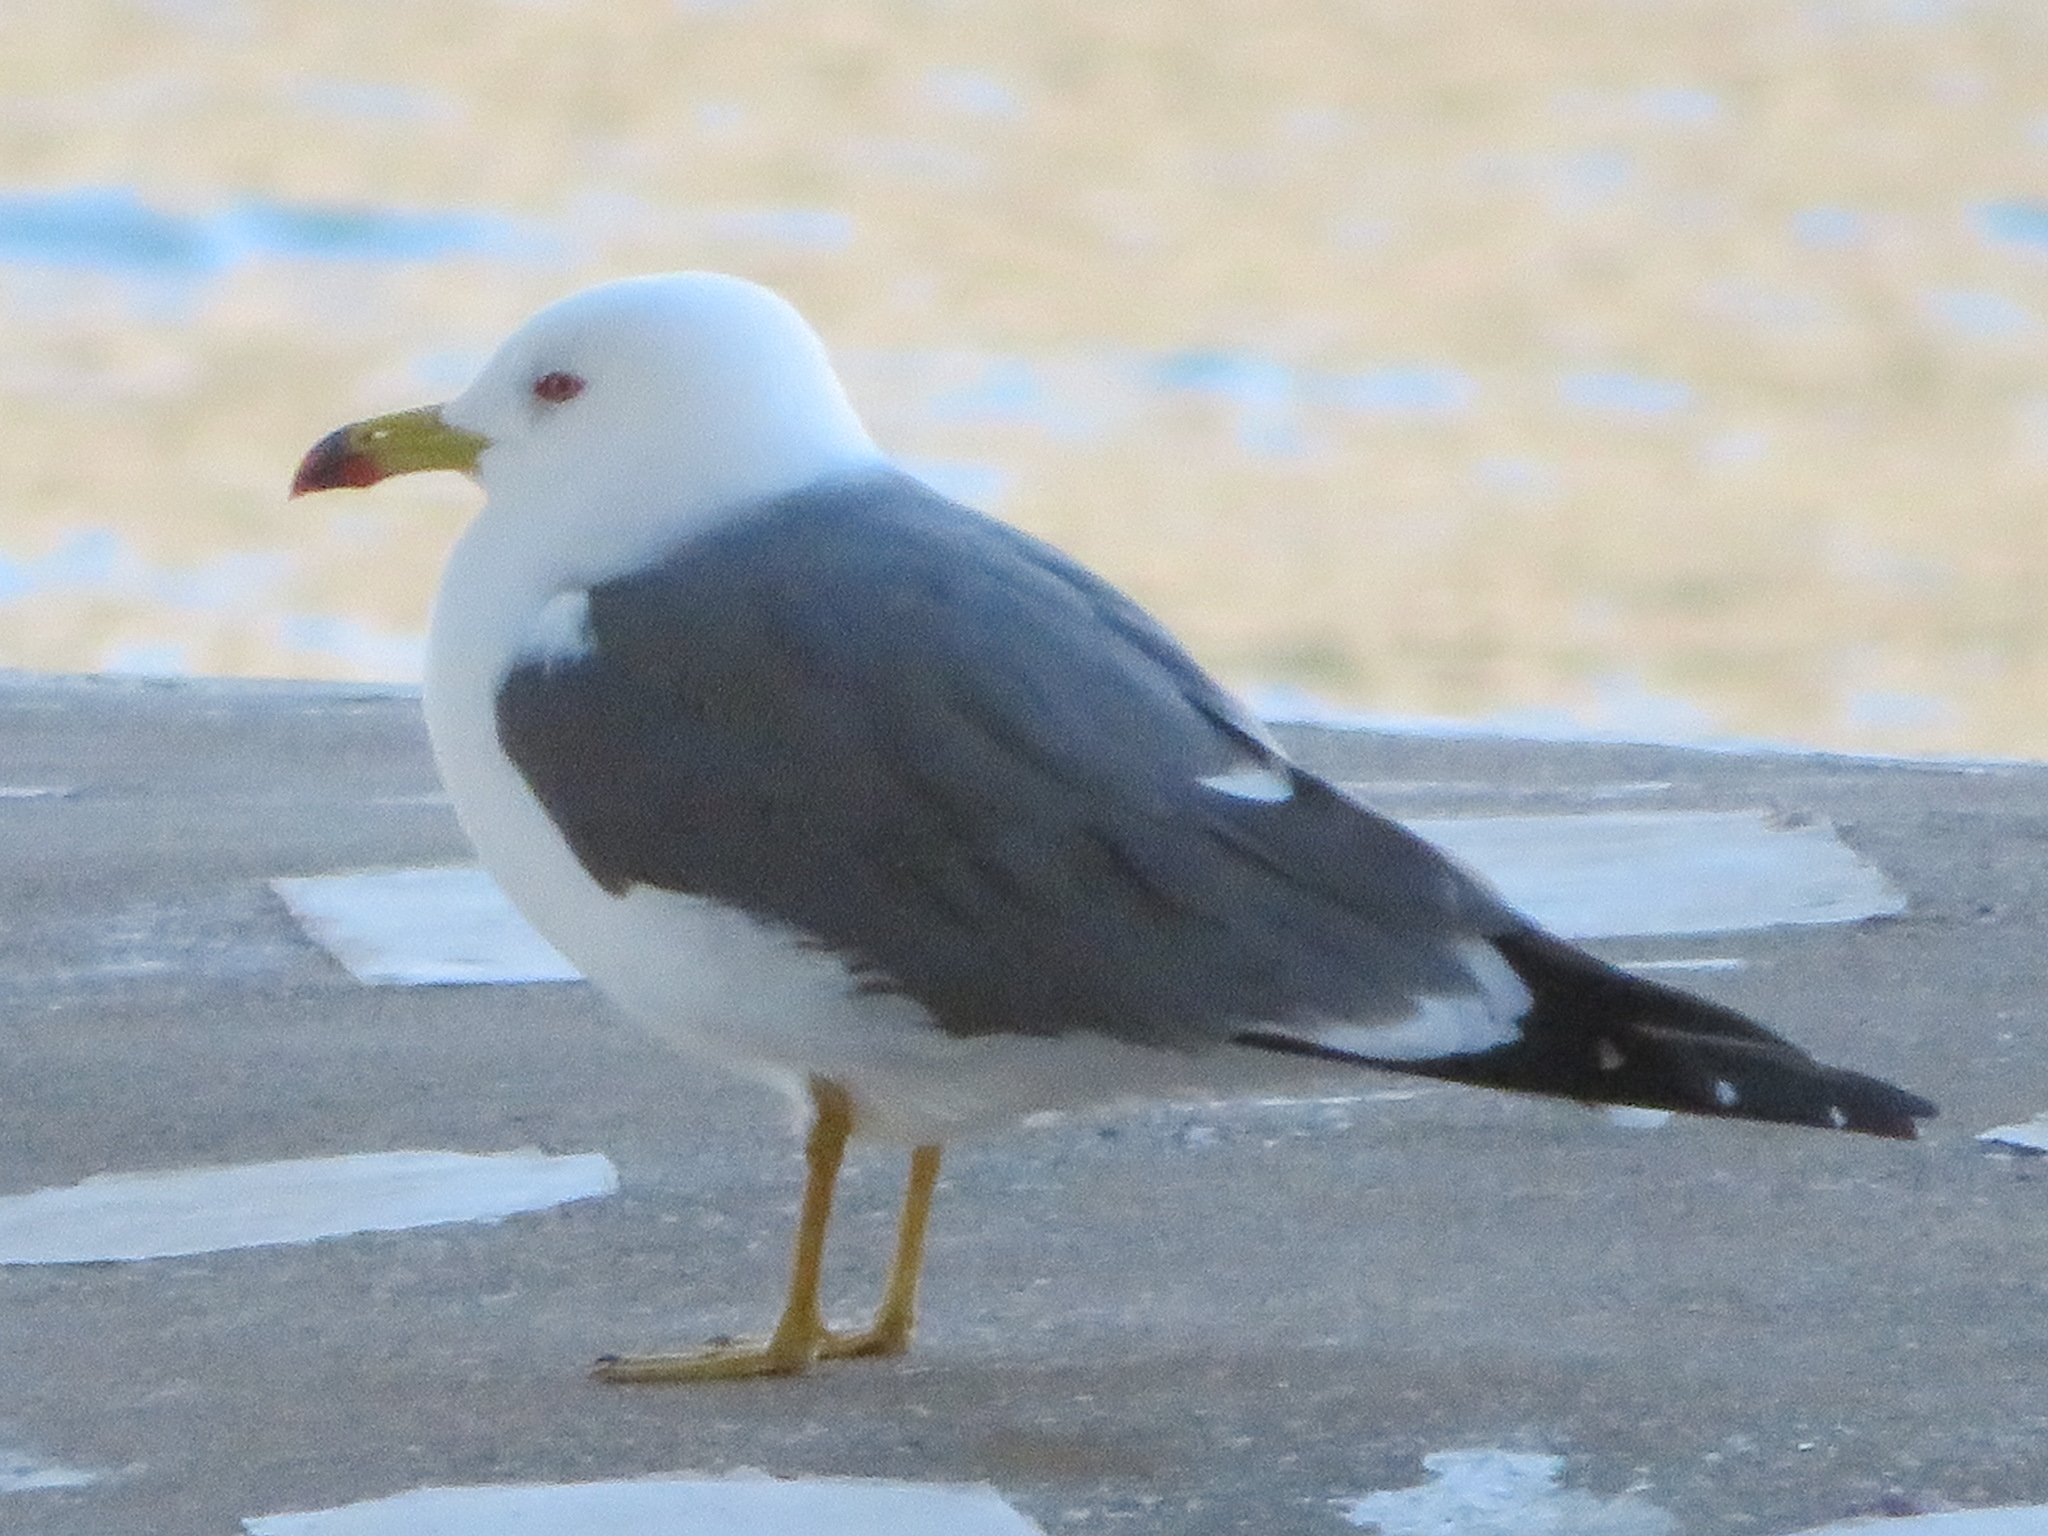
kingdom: Animalia
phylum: Chordata
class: Aves
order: Charadriiformes
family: Laridae
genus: Larus
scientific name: Larus crassirostris
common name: Black-tailed gull
